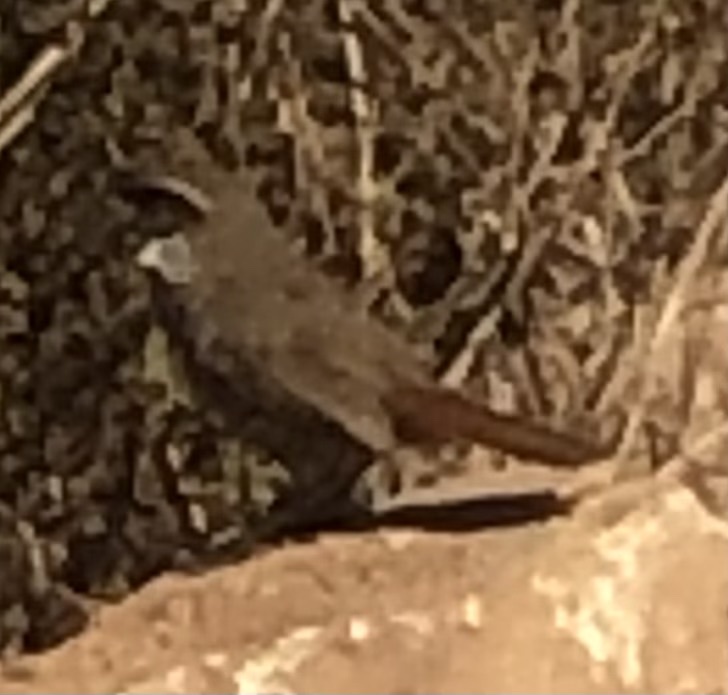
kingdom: Animalia
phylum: Chordata
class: Aves
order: Passeriformes
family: Rhinocryptidae
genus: Scelorchilus
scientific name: Scelorchilus albicollis
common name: White-throated tapaculo
